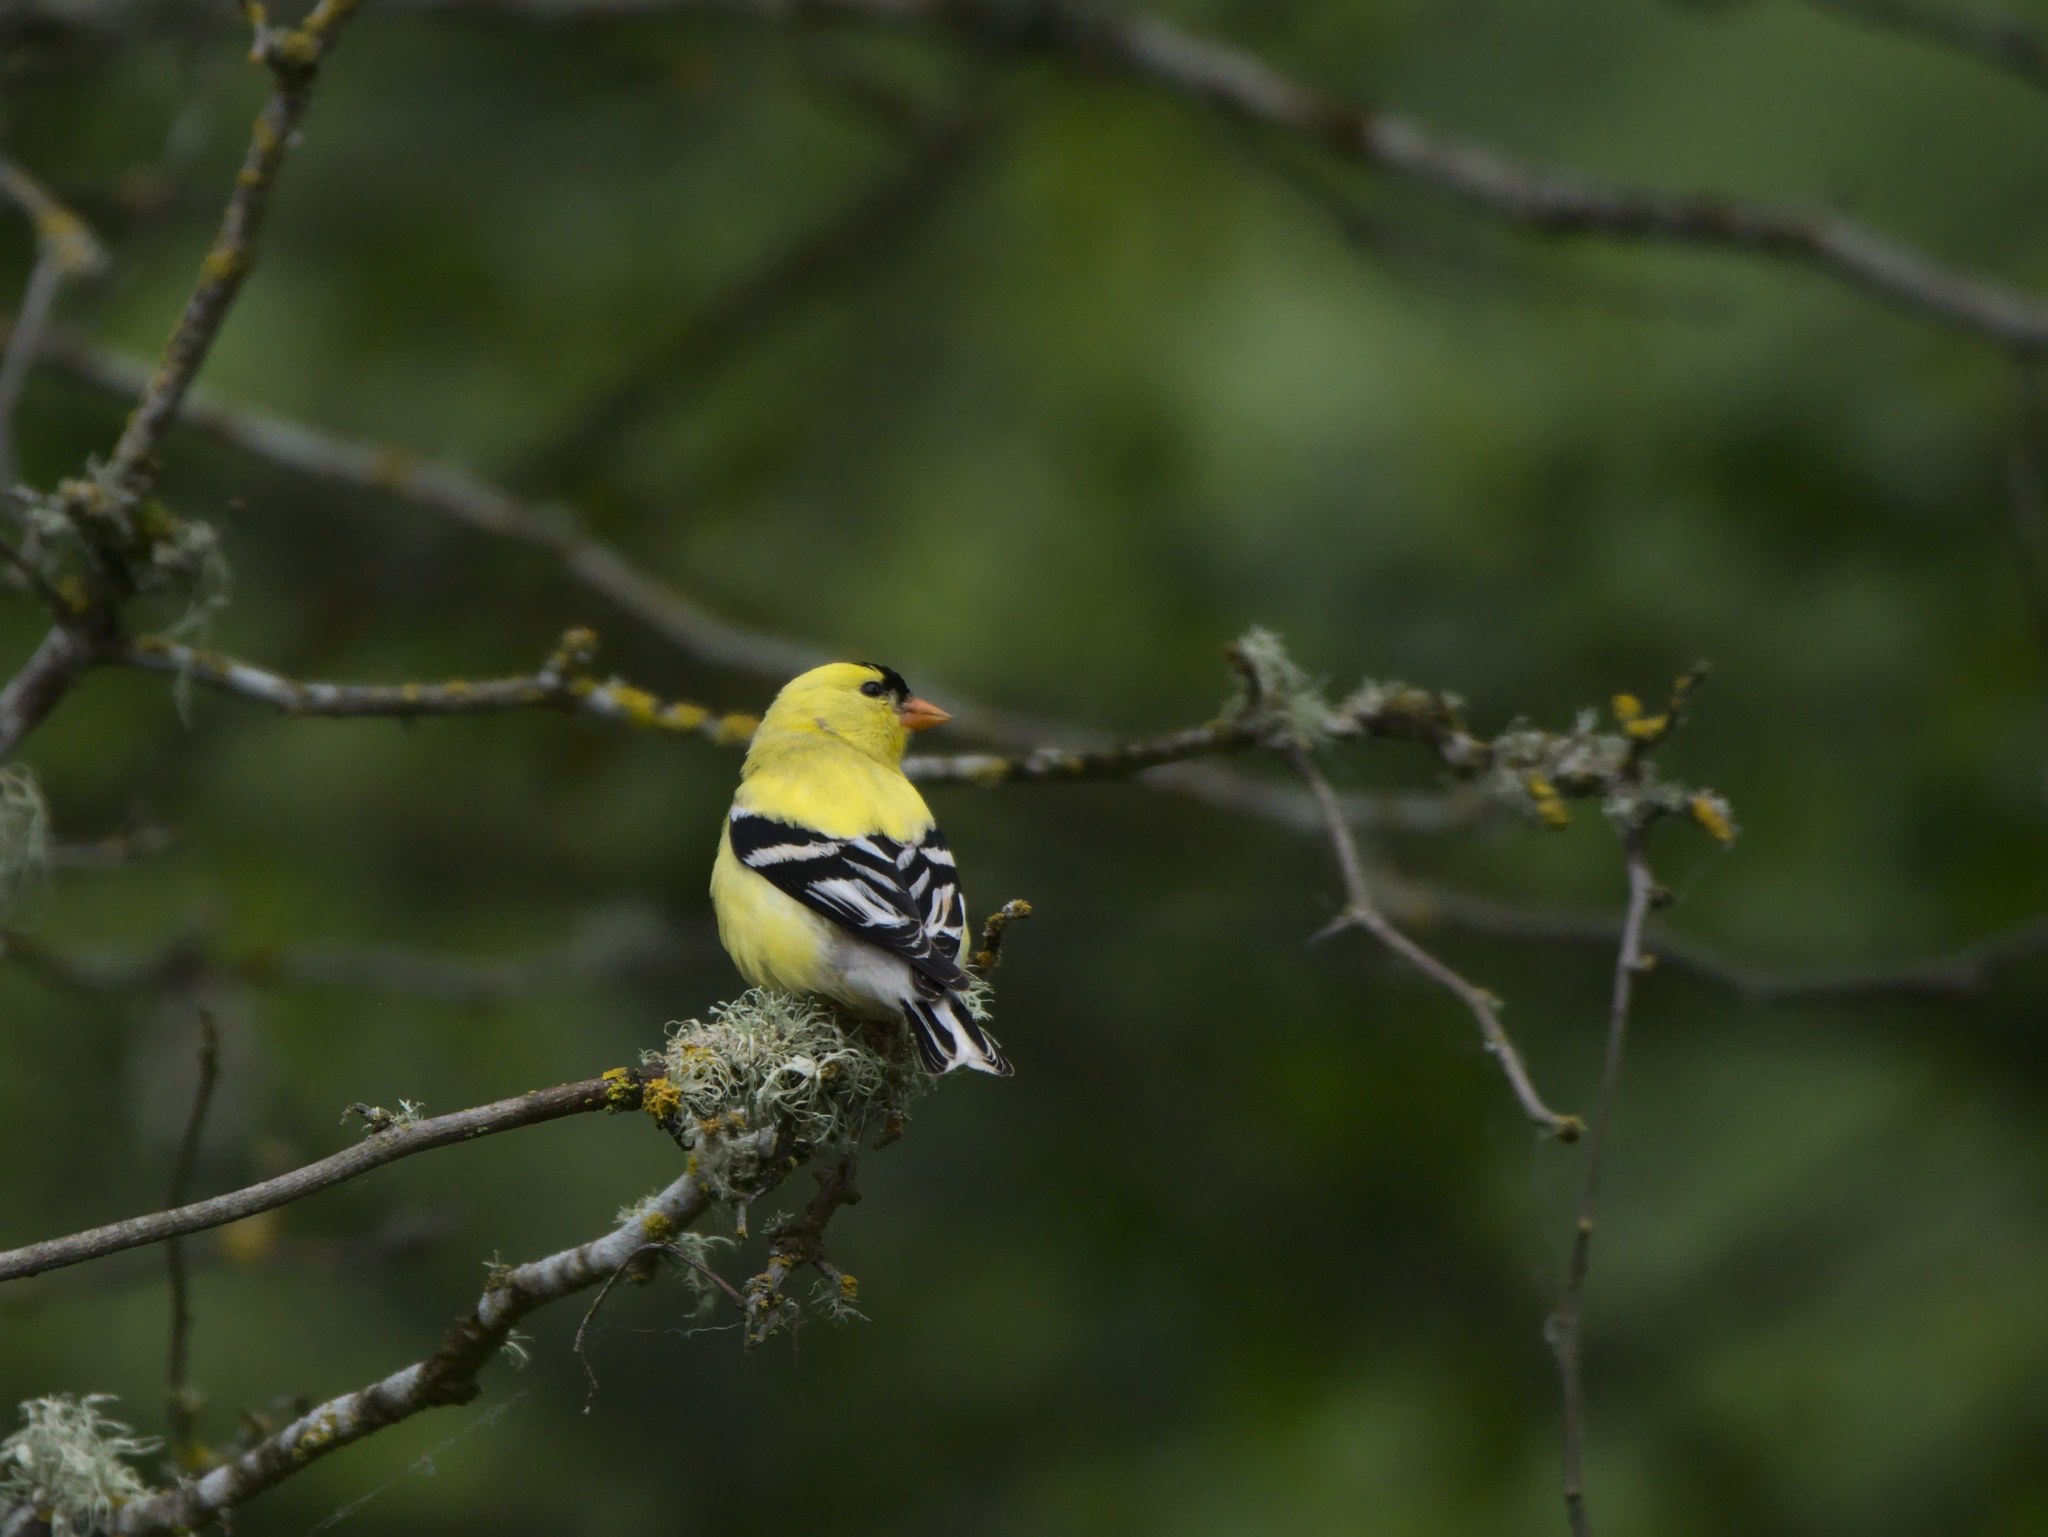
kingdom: Animalia
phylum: Chordata
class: Aves
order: Passeriformes
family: Fringillidae
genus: Spinus
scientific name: Spinus tristis
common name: American goldfinch
